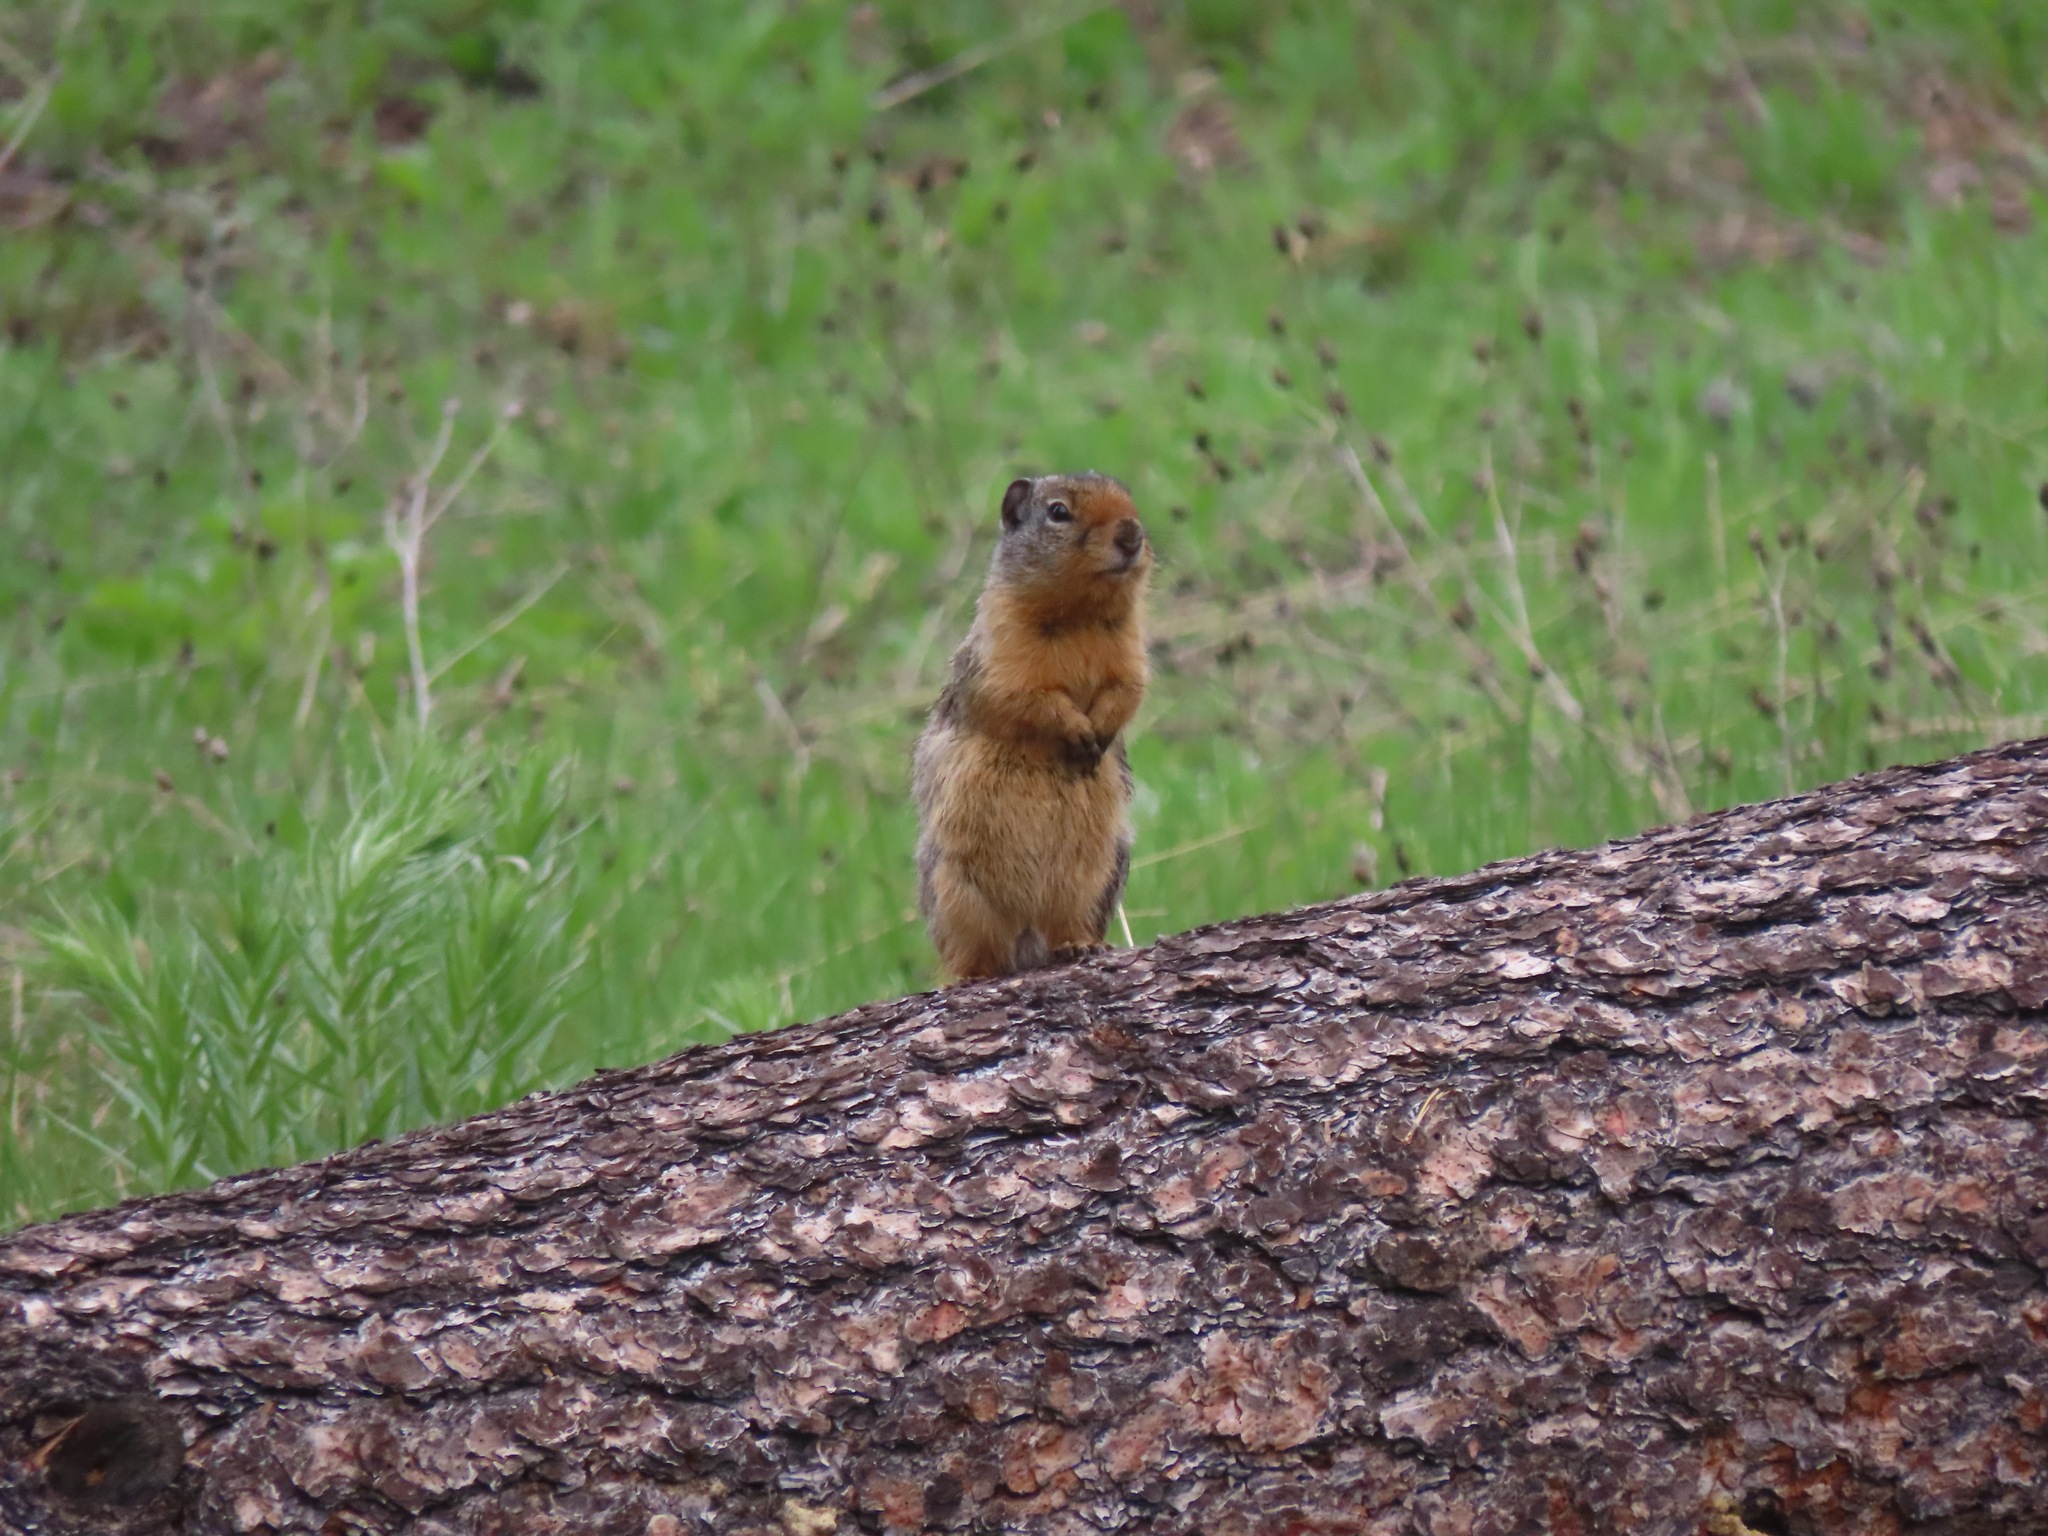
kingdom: Animalia
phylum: Chordata
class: Mammalia
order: Rodentia
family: Sciuridae
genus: Urocitellus
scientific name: Urocitellus columbianus
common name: Columbian ground squirrel
